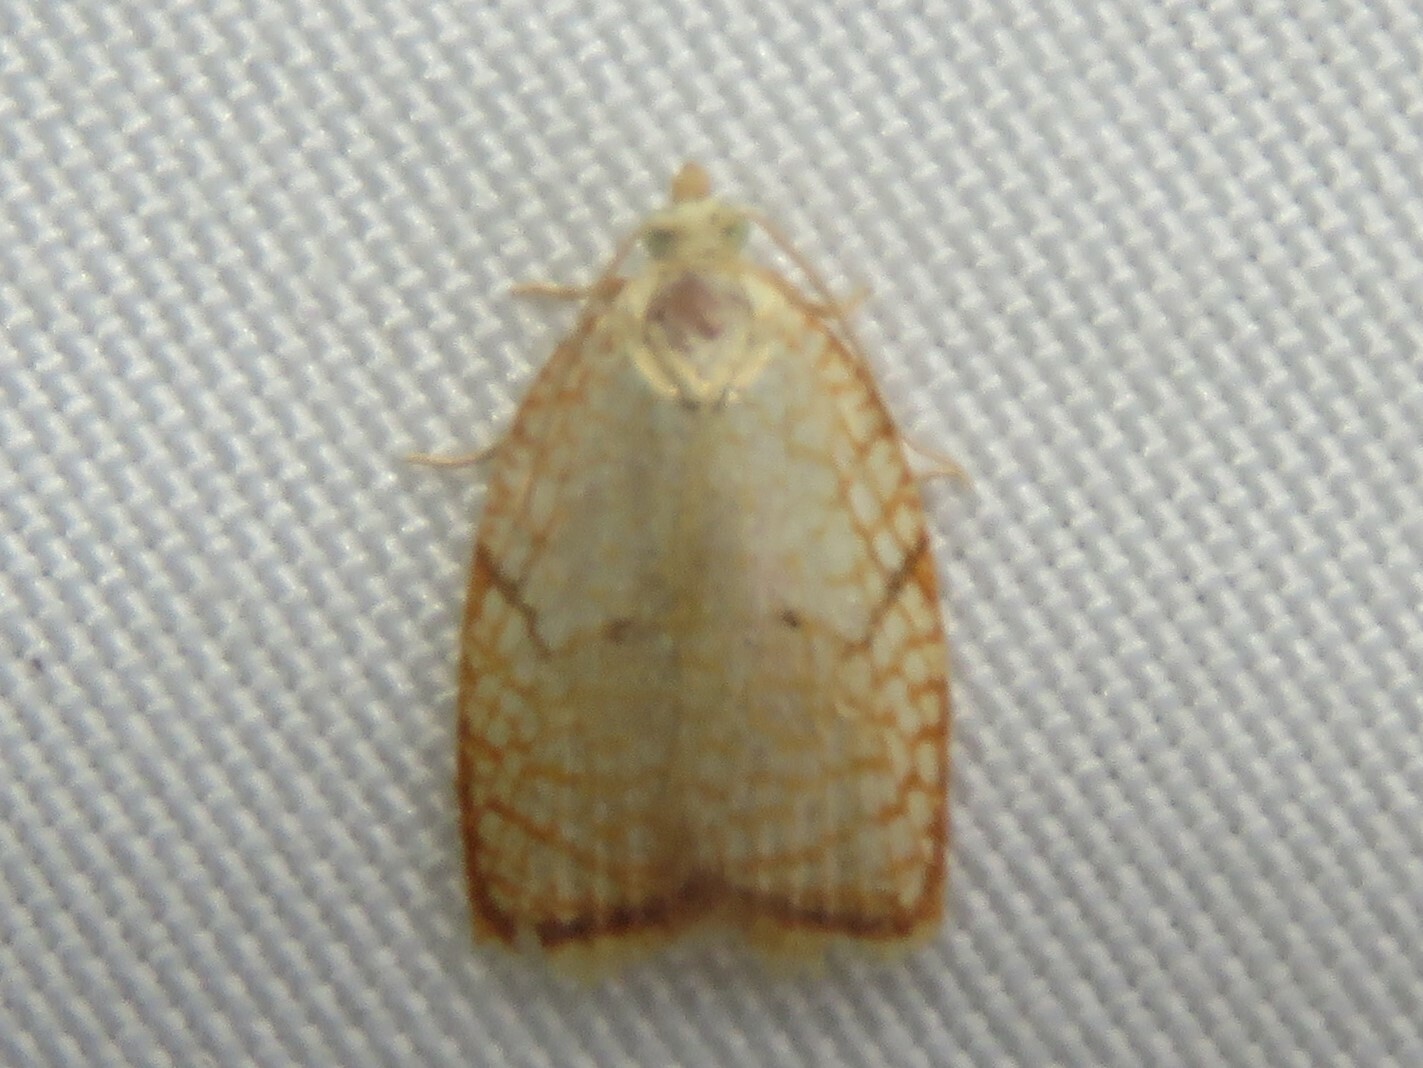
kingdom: Animalia
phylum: Arthropoda
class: Insecta
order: Lepidoptera
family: Tortricidae
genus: Acleris
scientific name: Acleris forsskaleana
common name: Maple button
